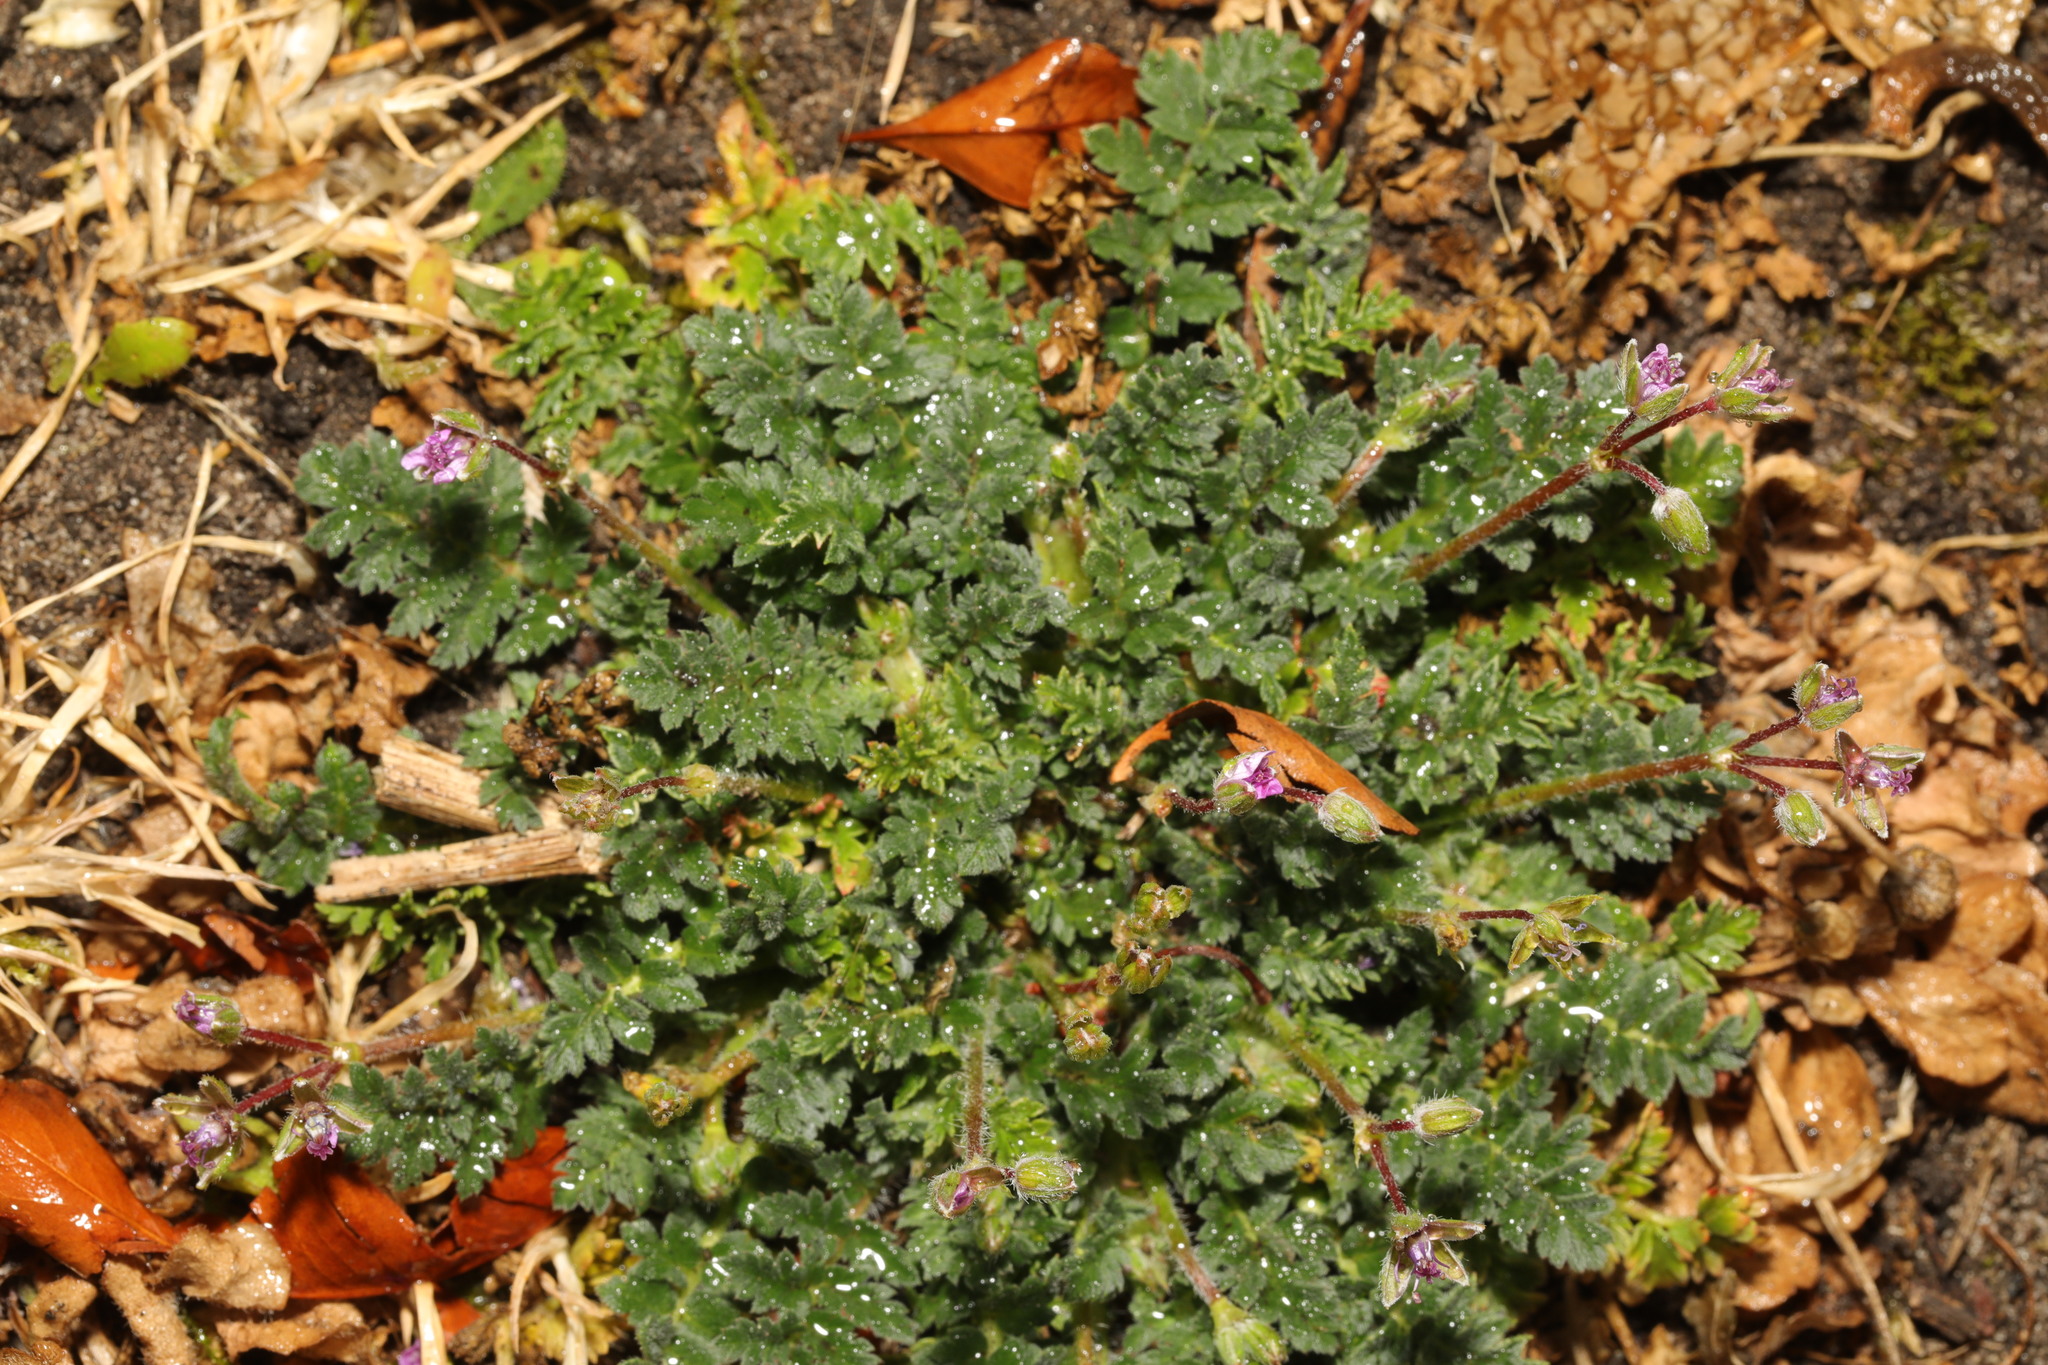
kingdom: Plantae
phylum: Tracheophyta
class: Magnoliopsida
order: Geraniales
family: Geraniaceae
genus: Erodium
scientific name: Erodium cicutarium
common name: Common stork's-bill
